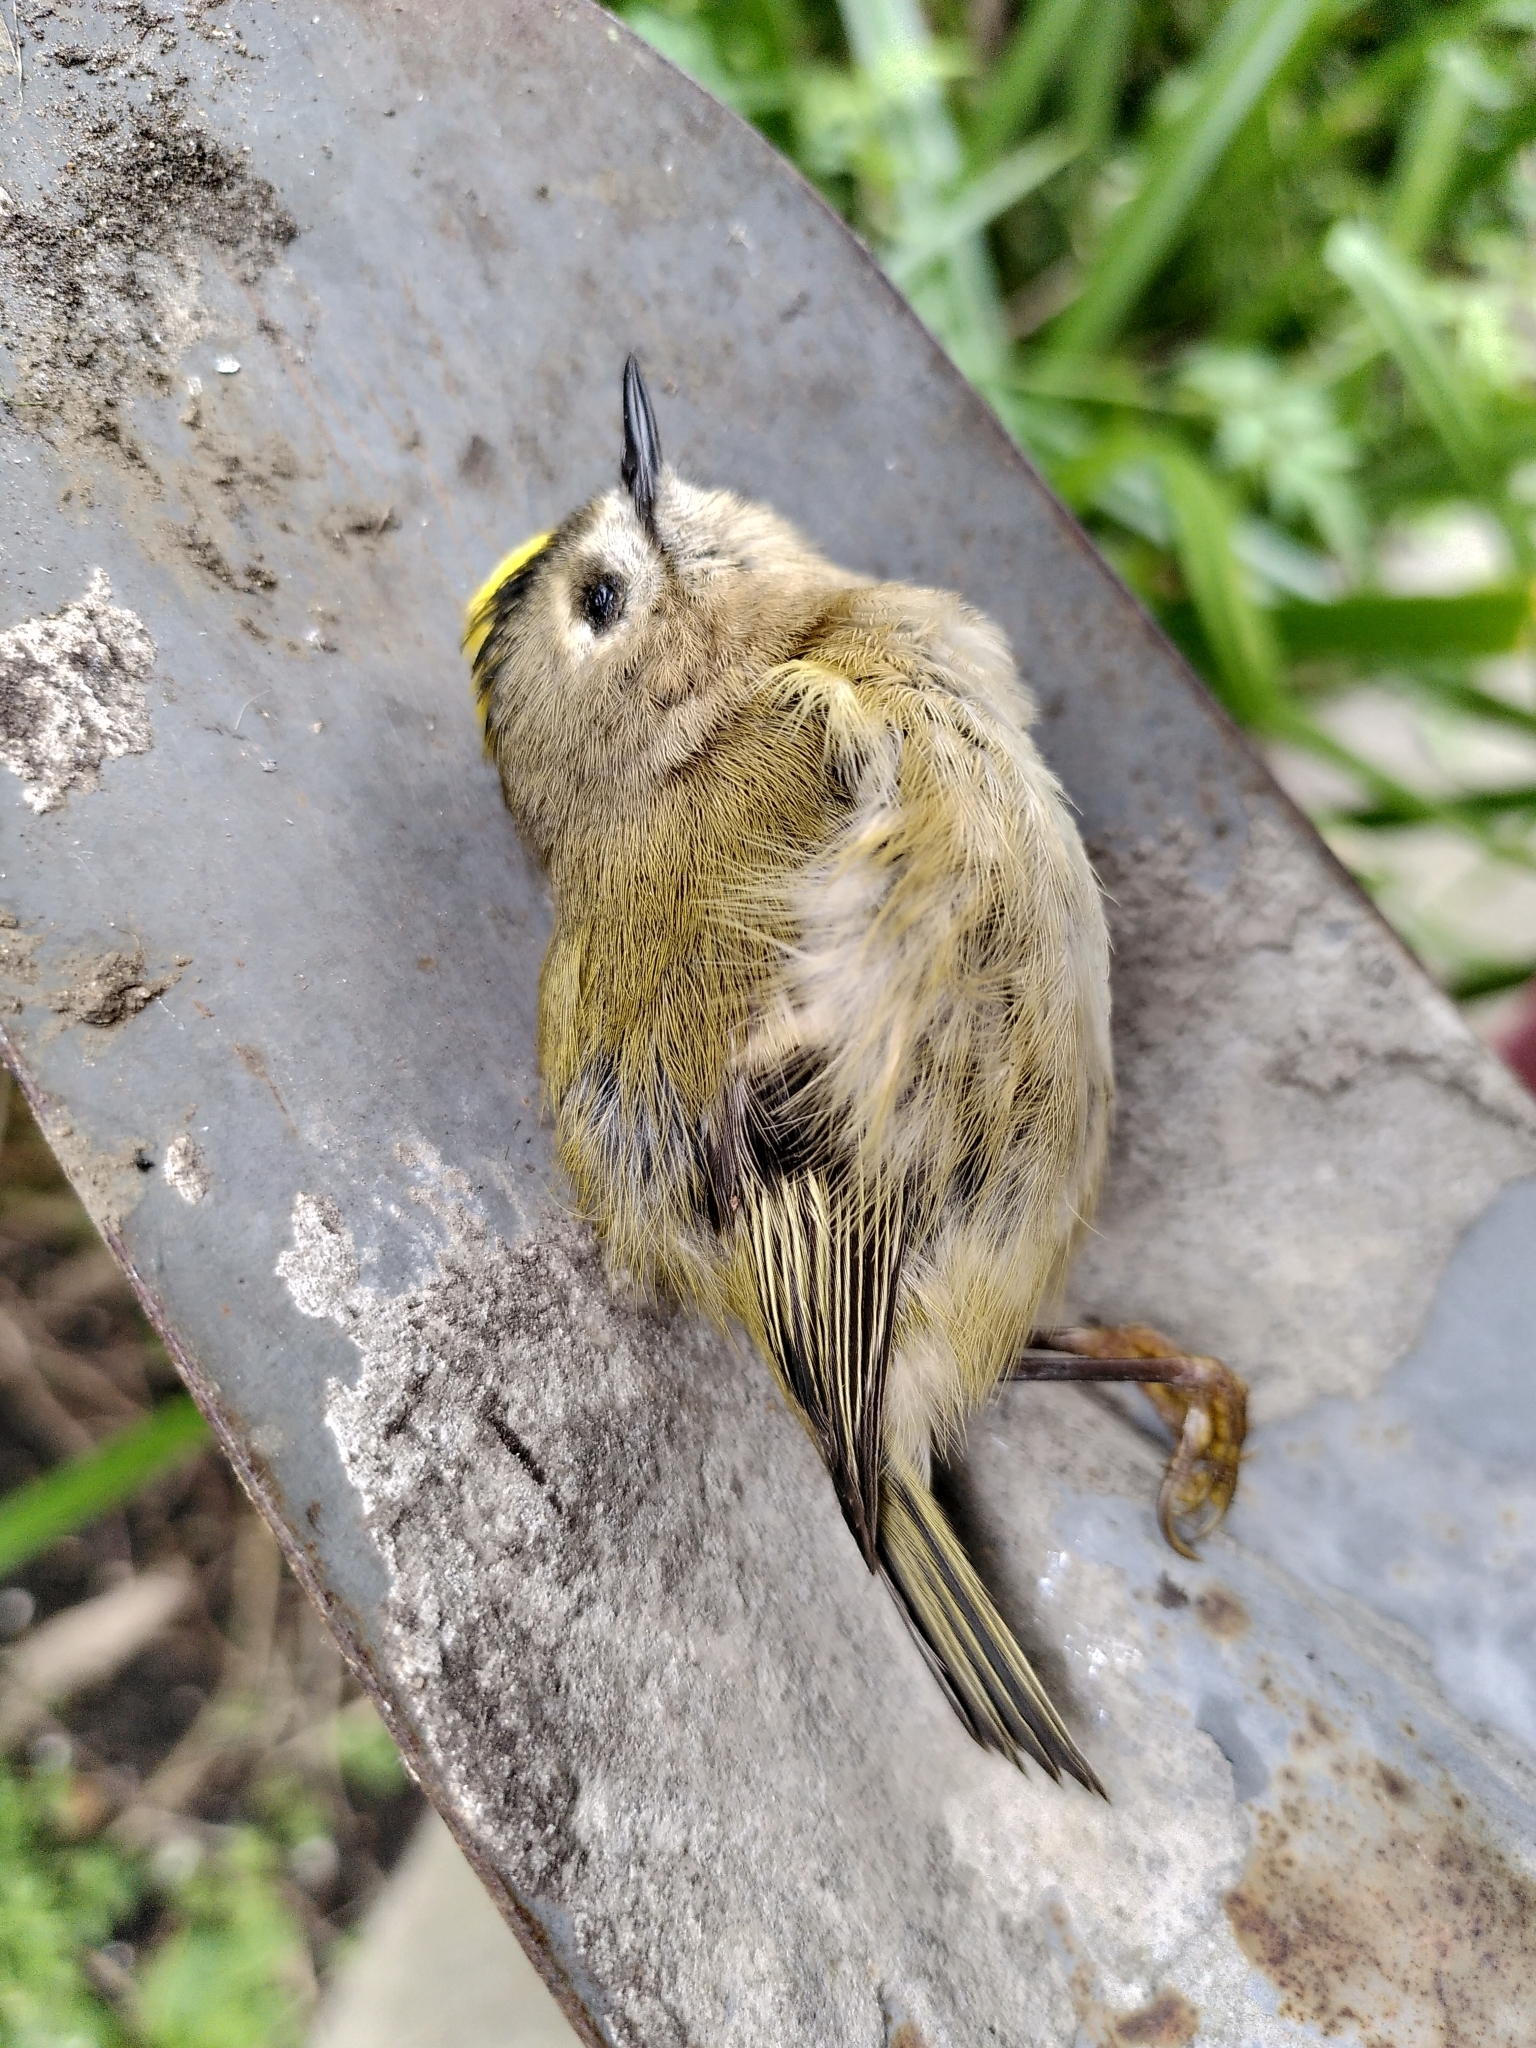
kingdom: Animalia
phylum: Chordata
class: Aves
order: Passeriformes
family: Regulidae
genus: Regulus
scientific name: Regulus regulus
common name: Goldcrest
